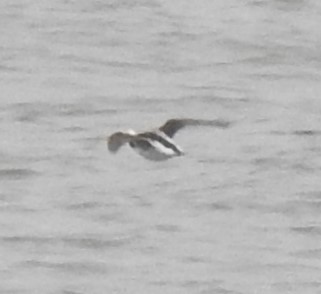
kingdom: Animalia
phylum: Chordata
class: Aves
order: Anseriformes
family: Anatidae
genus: Clangula
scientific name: Clangula hyemalis
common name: Long-tailed duck
